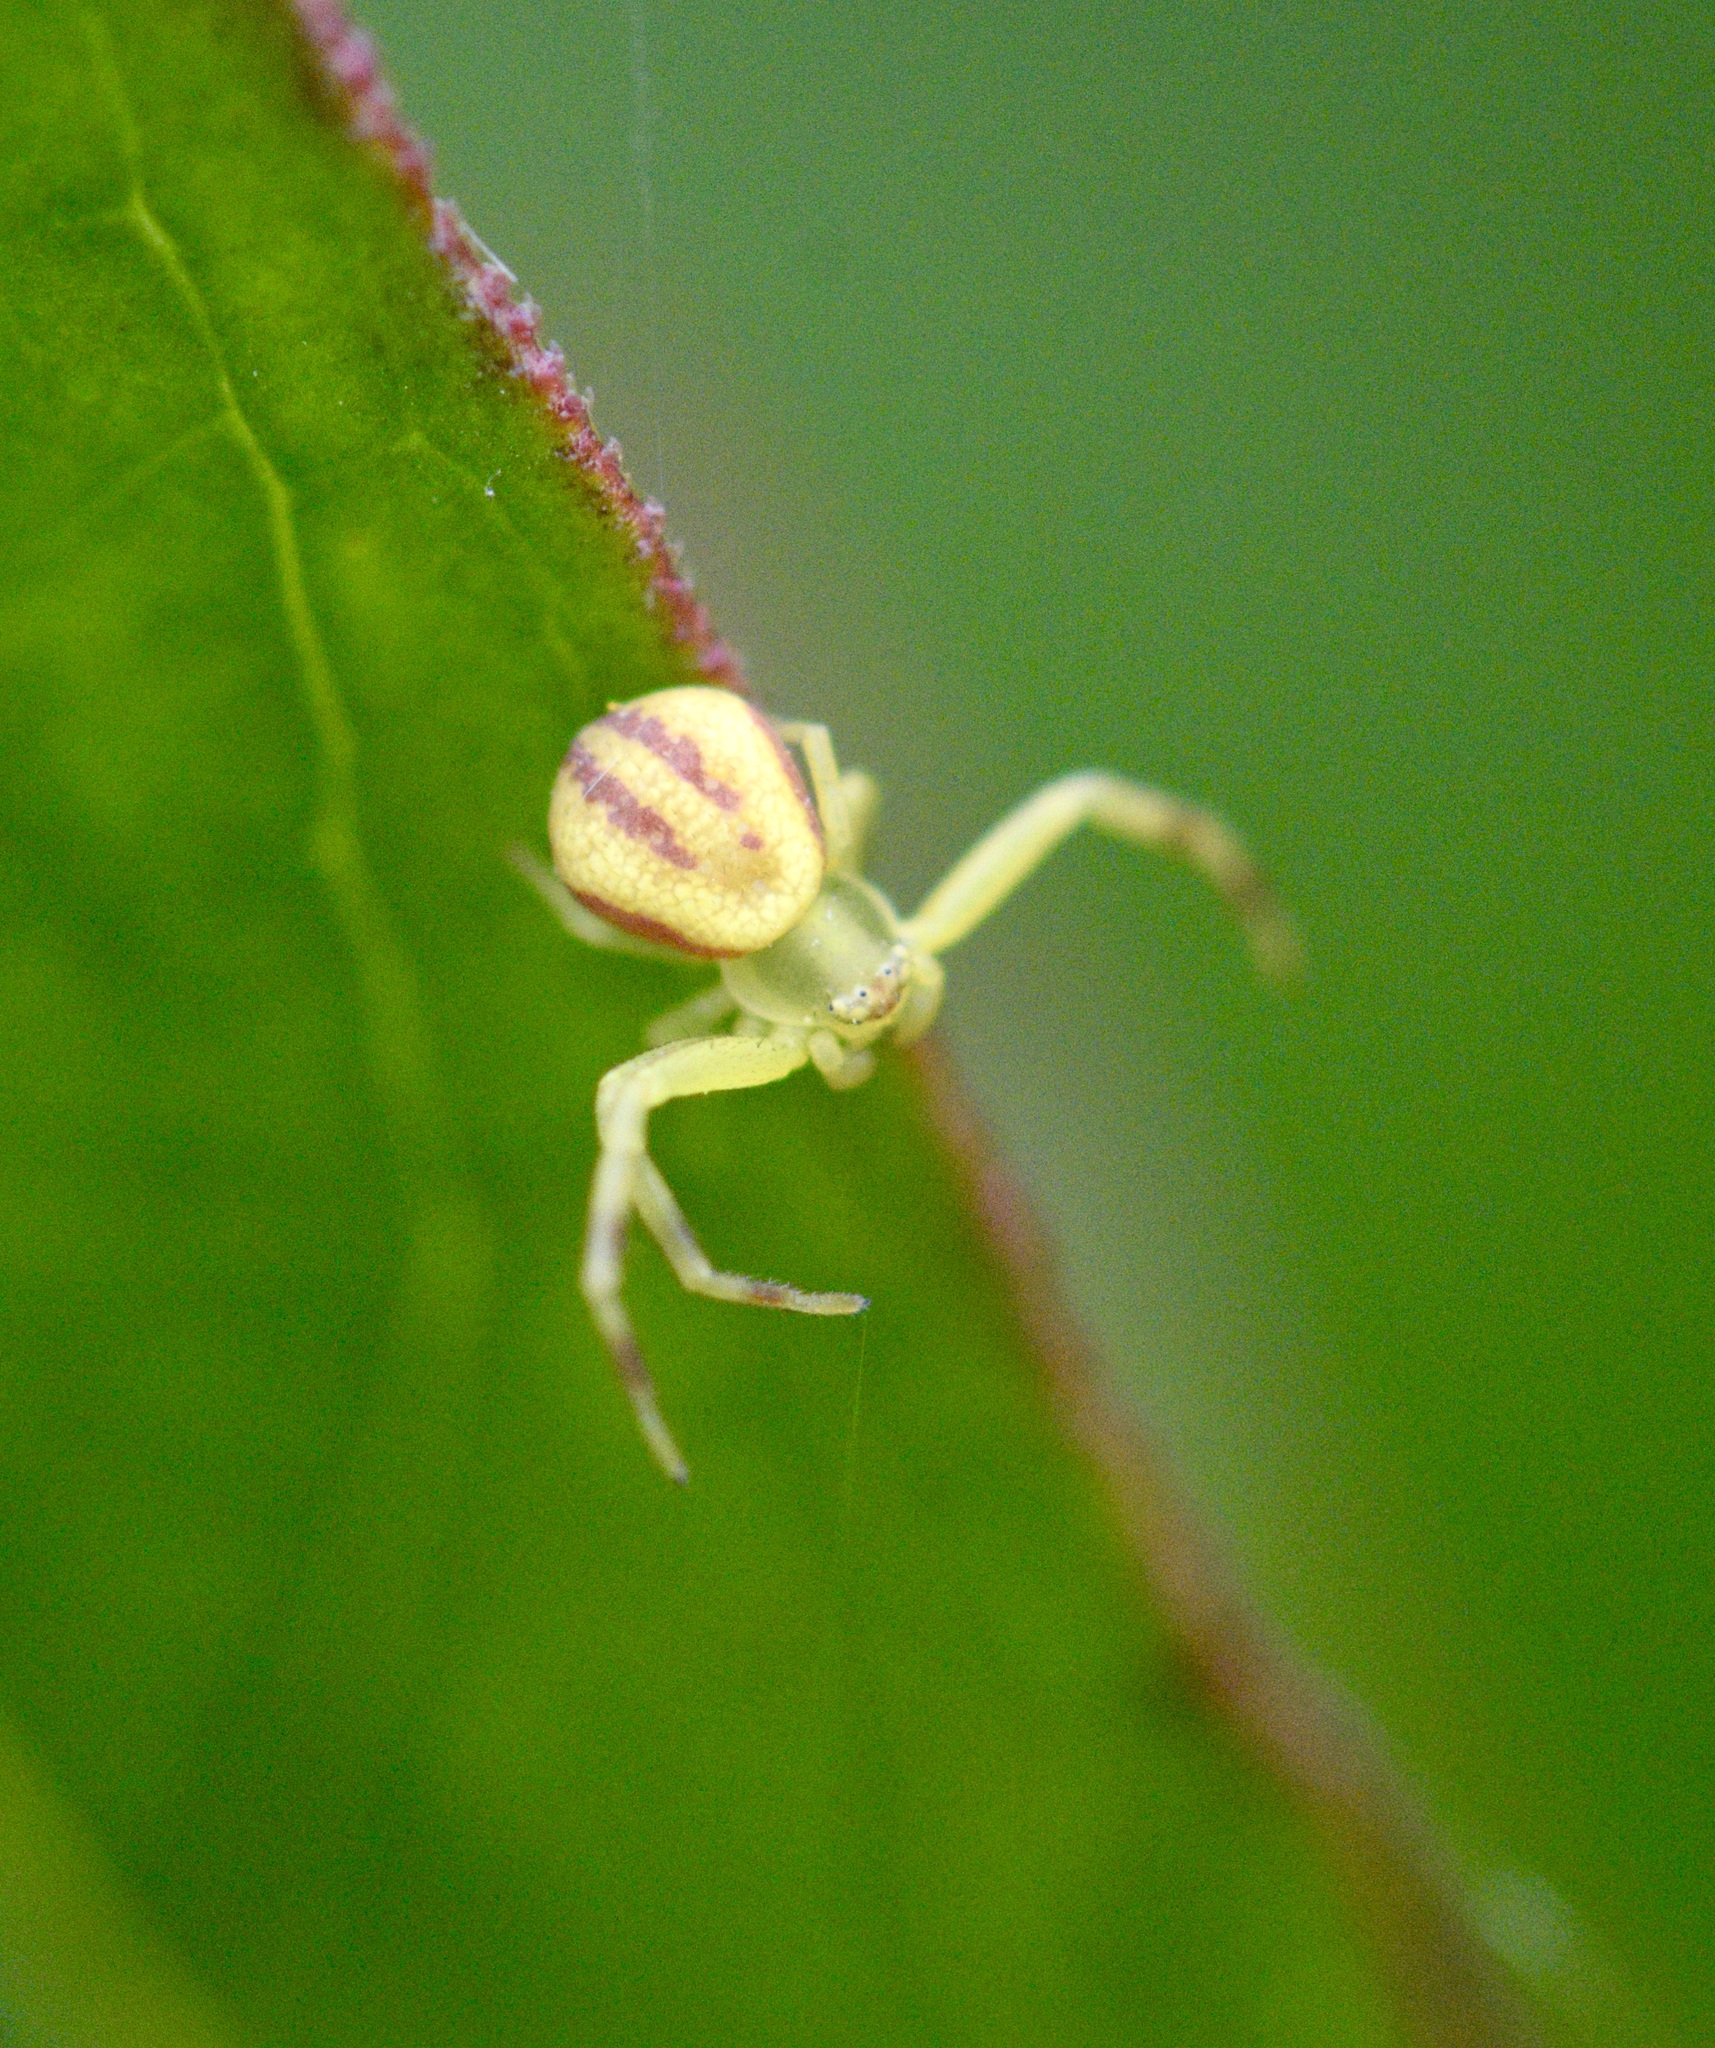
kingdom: Animalia
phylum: Arthropoda
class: Arachnida
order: Araneae
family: Thomisidae
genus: Misumena
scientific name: Misumena vatia
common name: Goldenrod crab spider
